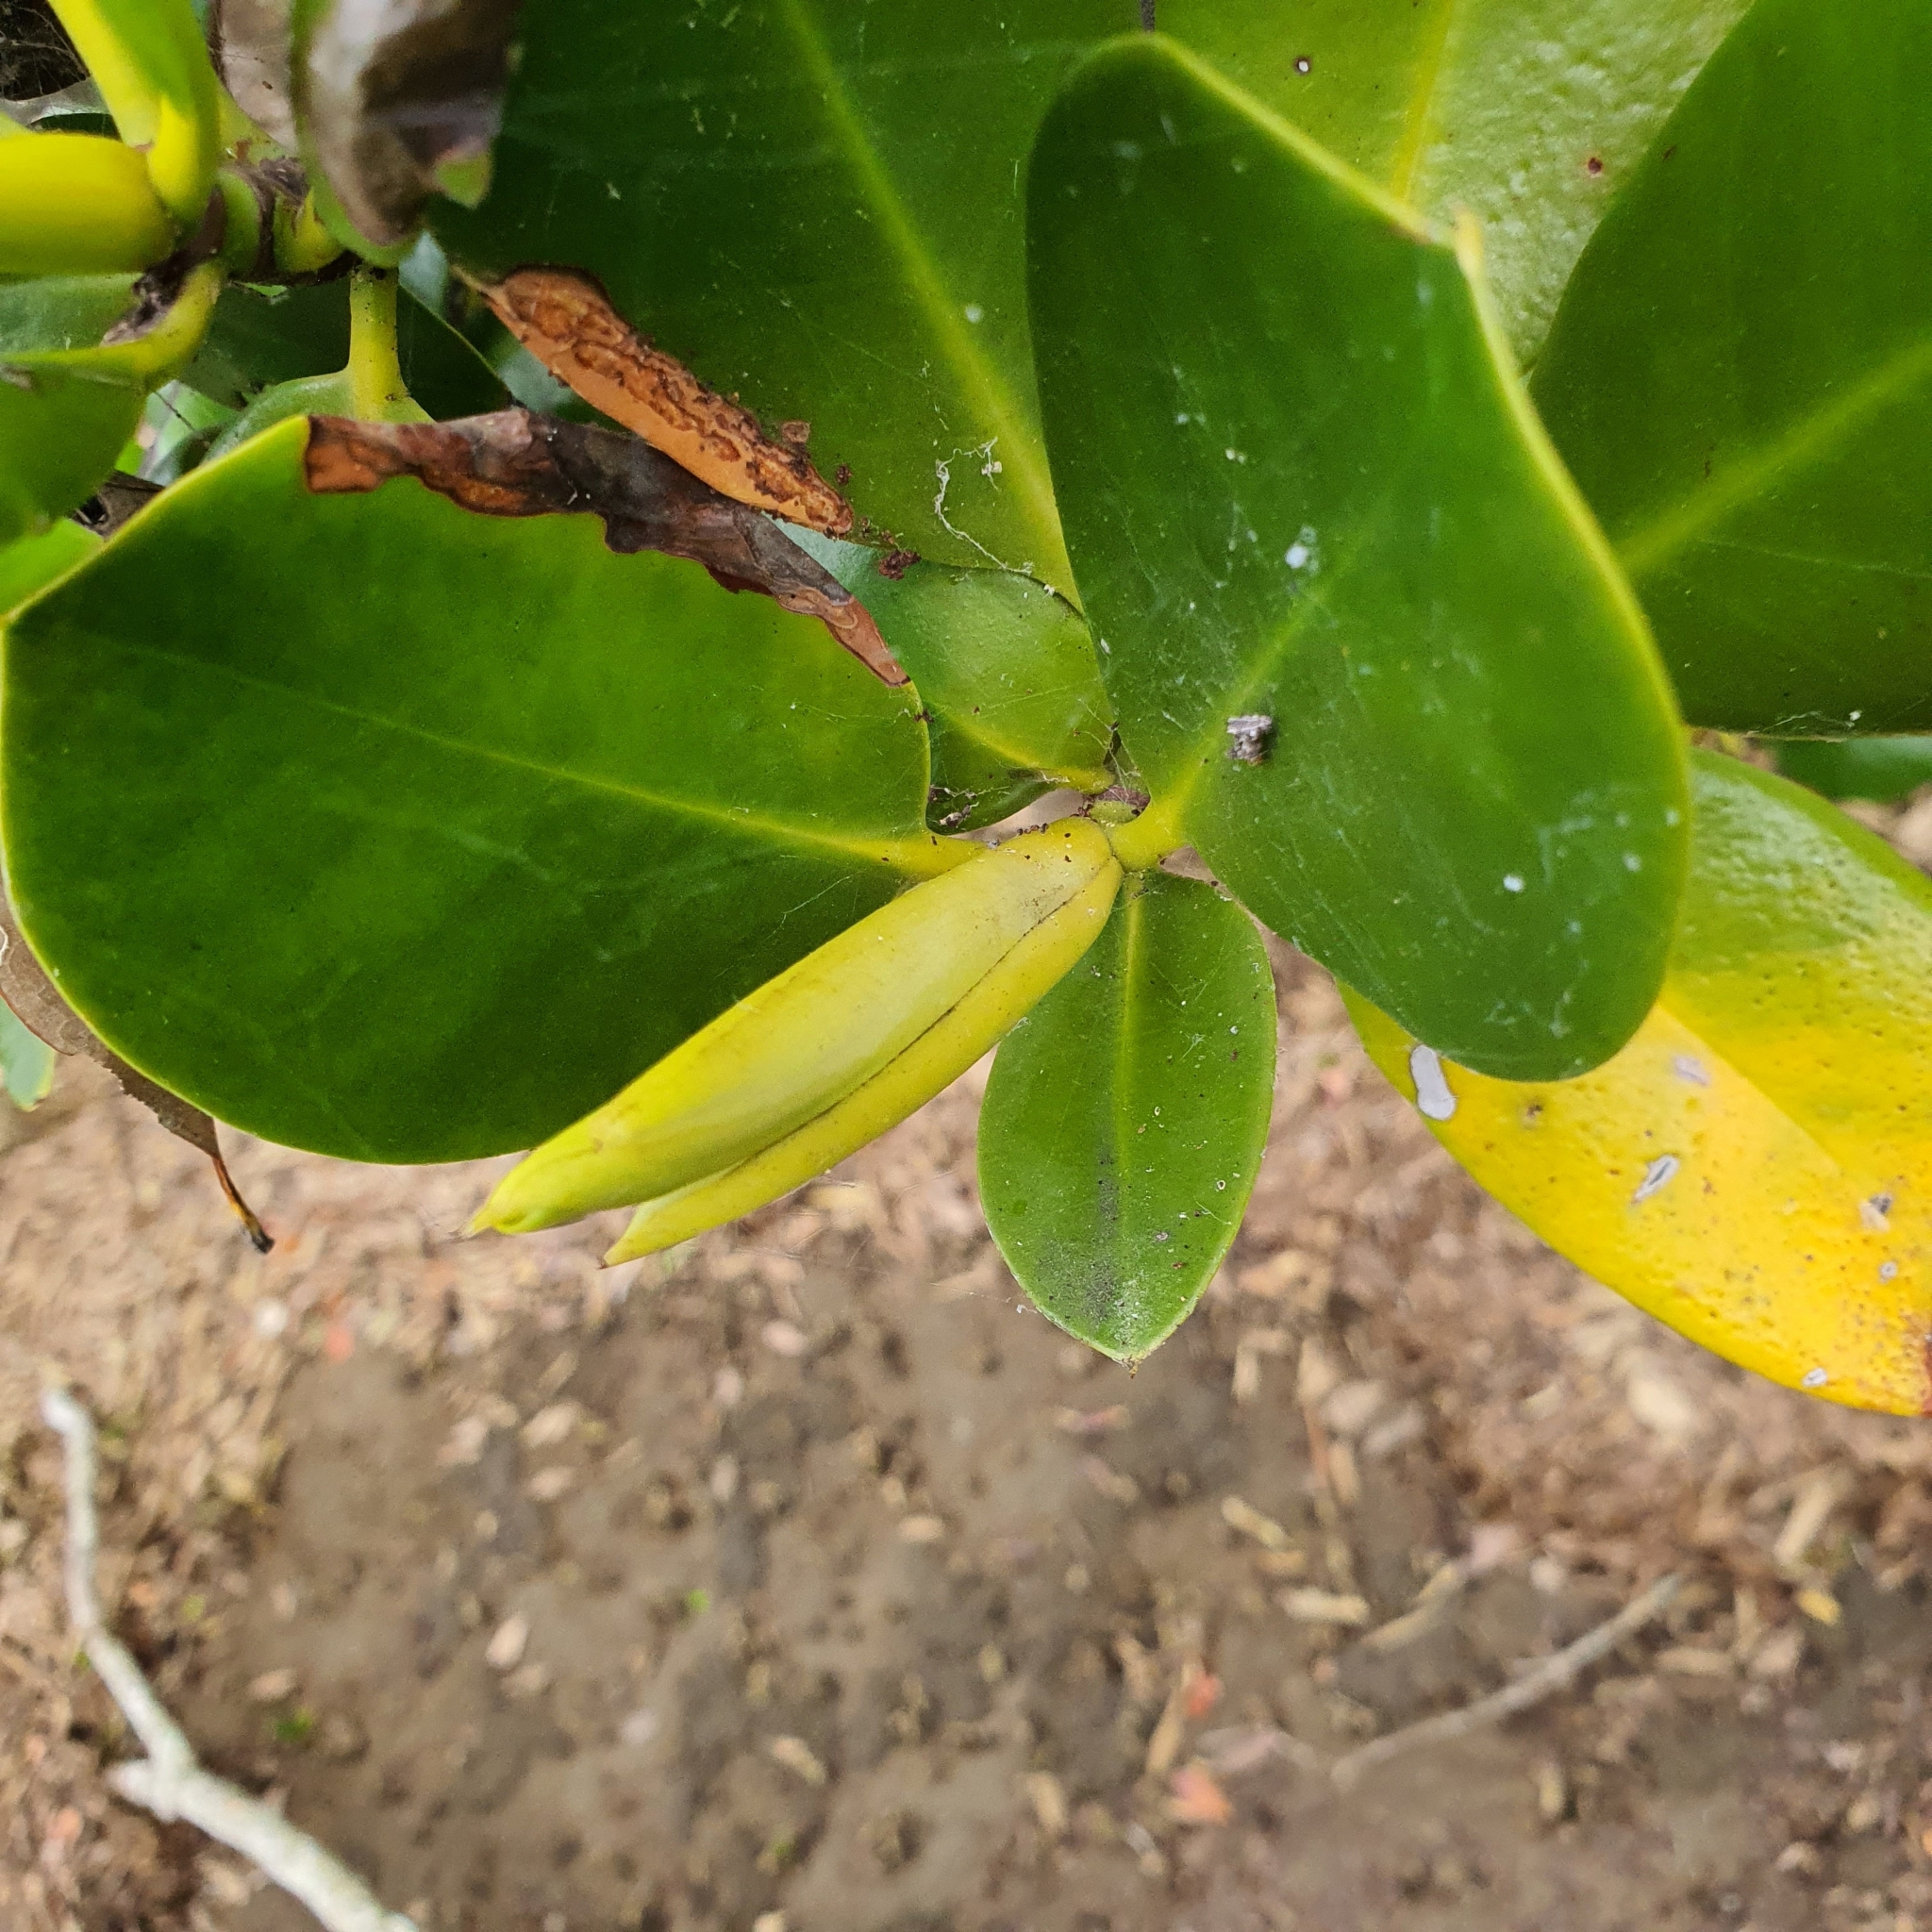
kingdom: Plantae
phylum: Tracheophyta
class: Magnoliopsida
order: Malpighiales
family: Rhizophoraceae
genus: Rhizophora
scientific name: Rhizophora stylosa
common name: Red mangrove
